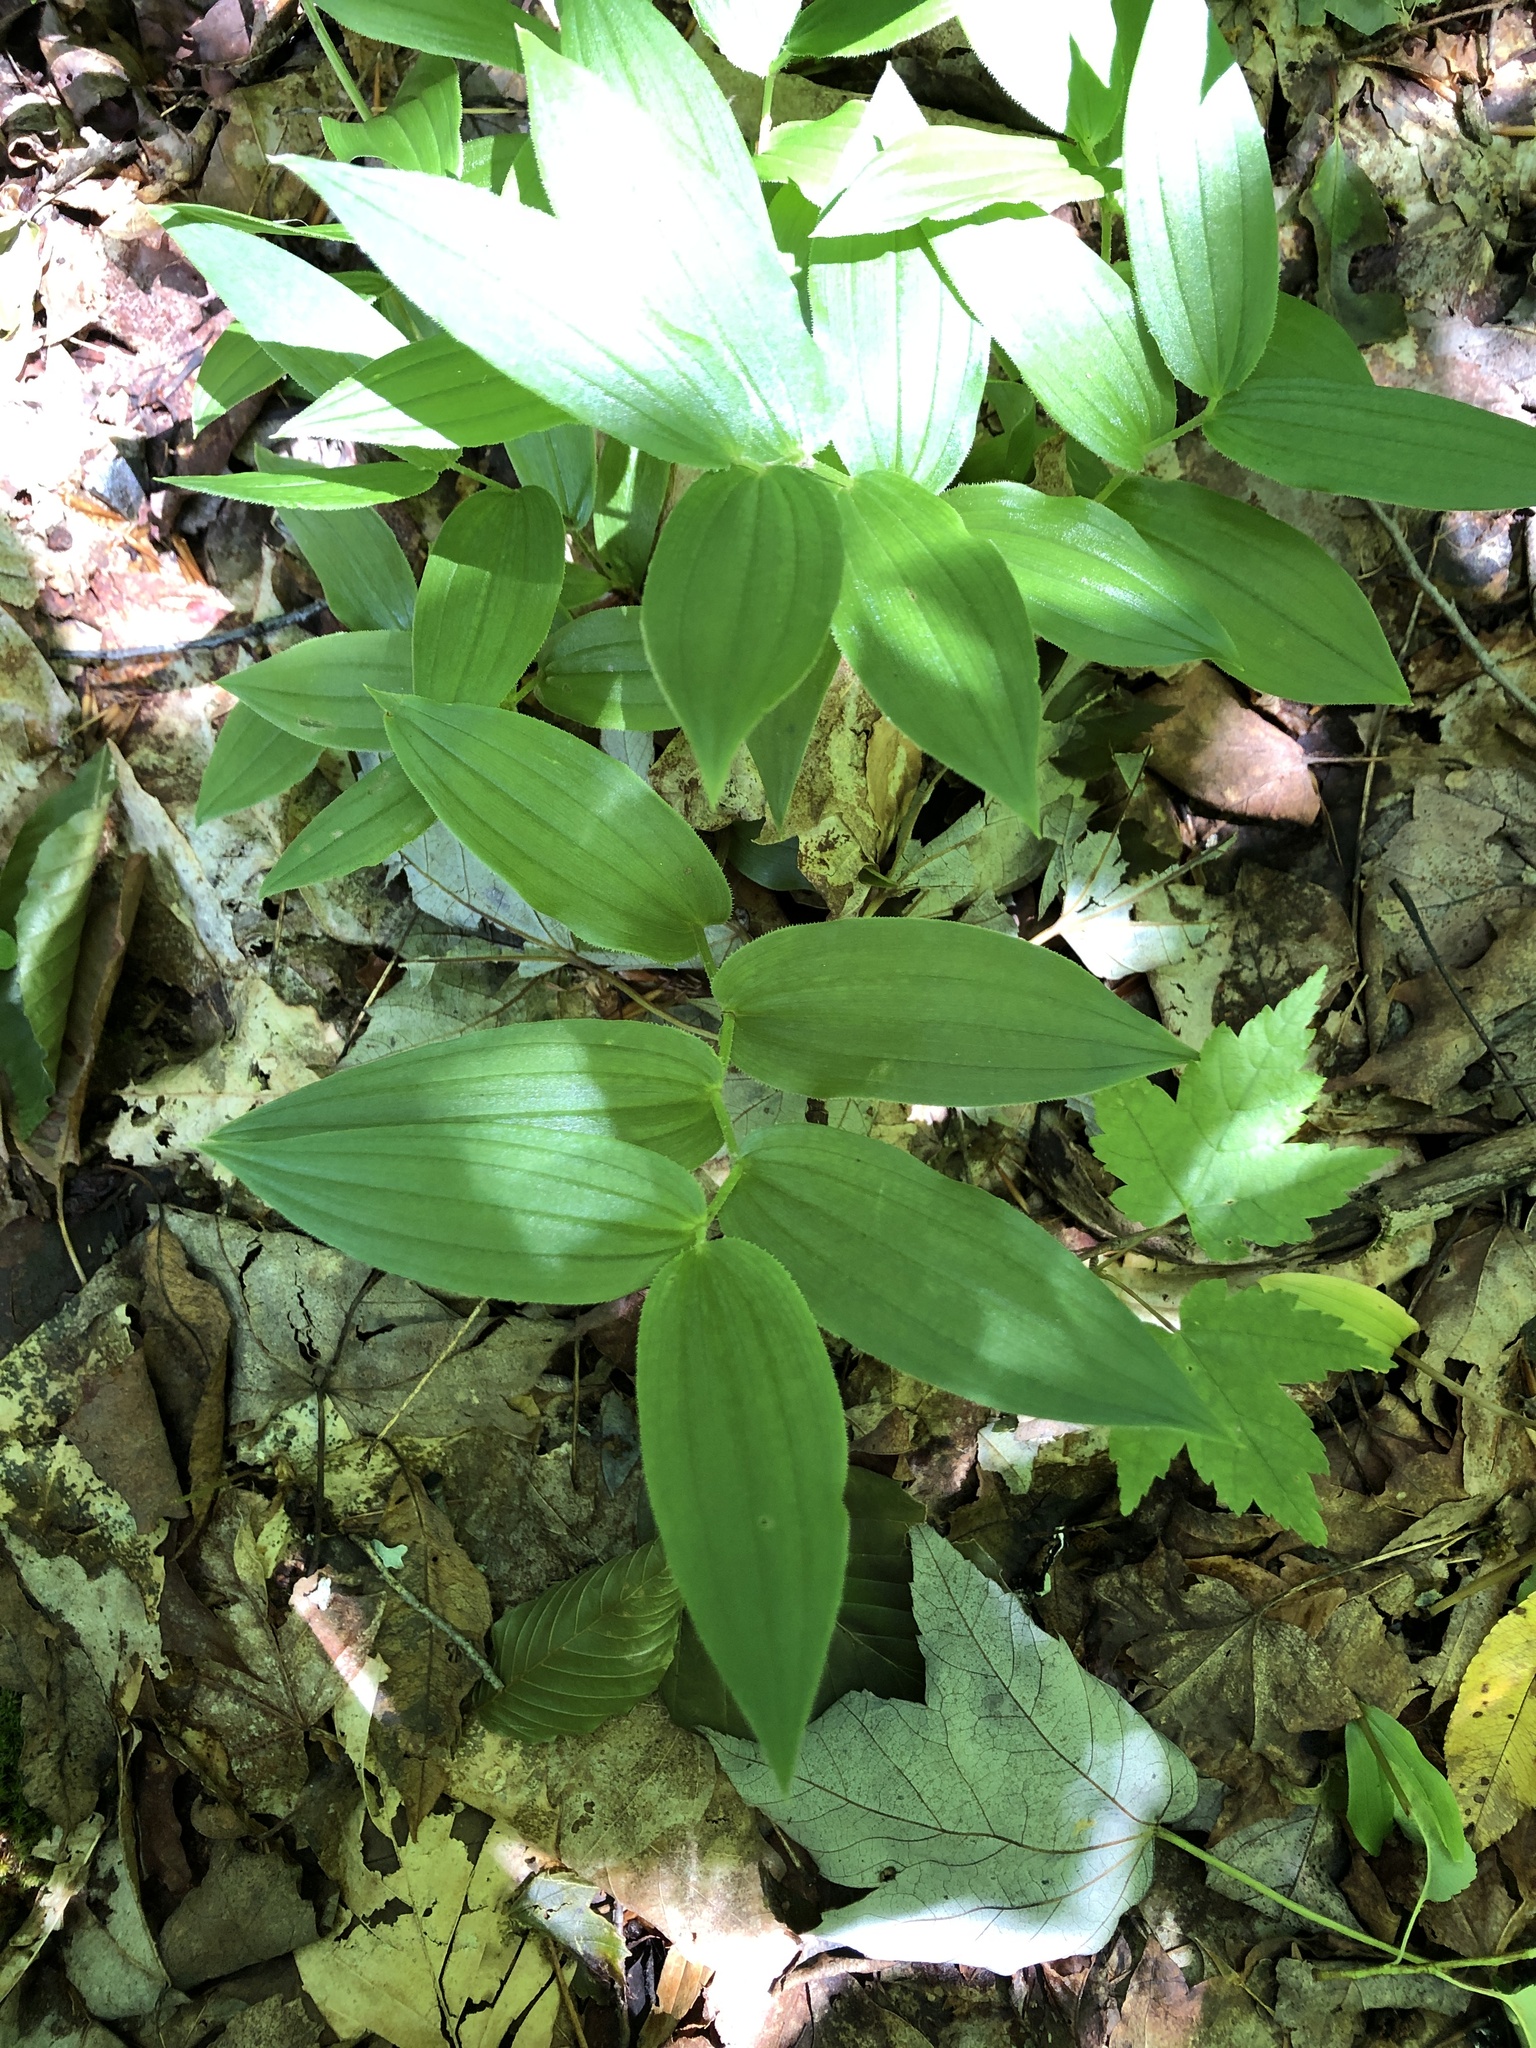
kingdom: Plantae
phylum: Tracheophyta
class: Liliopsida
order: Liliales
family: Liliaceae
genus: Streptopus
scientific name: Streptopus lanceolatus
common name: Rose mandarin
